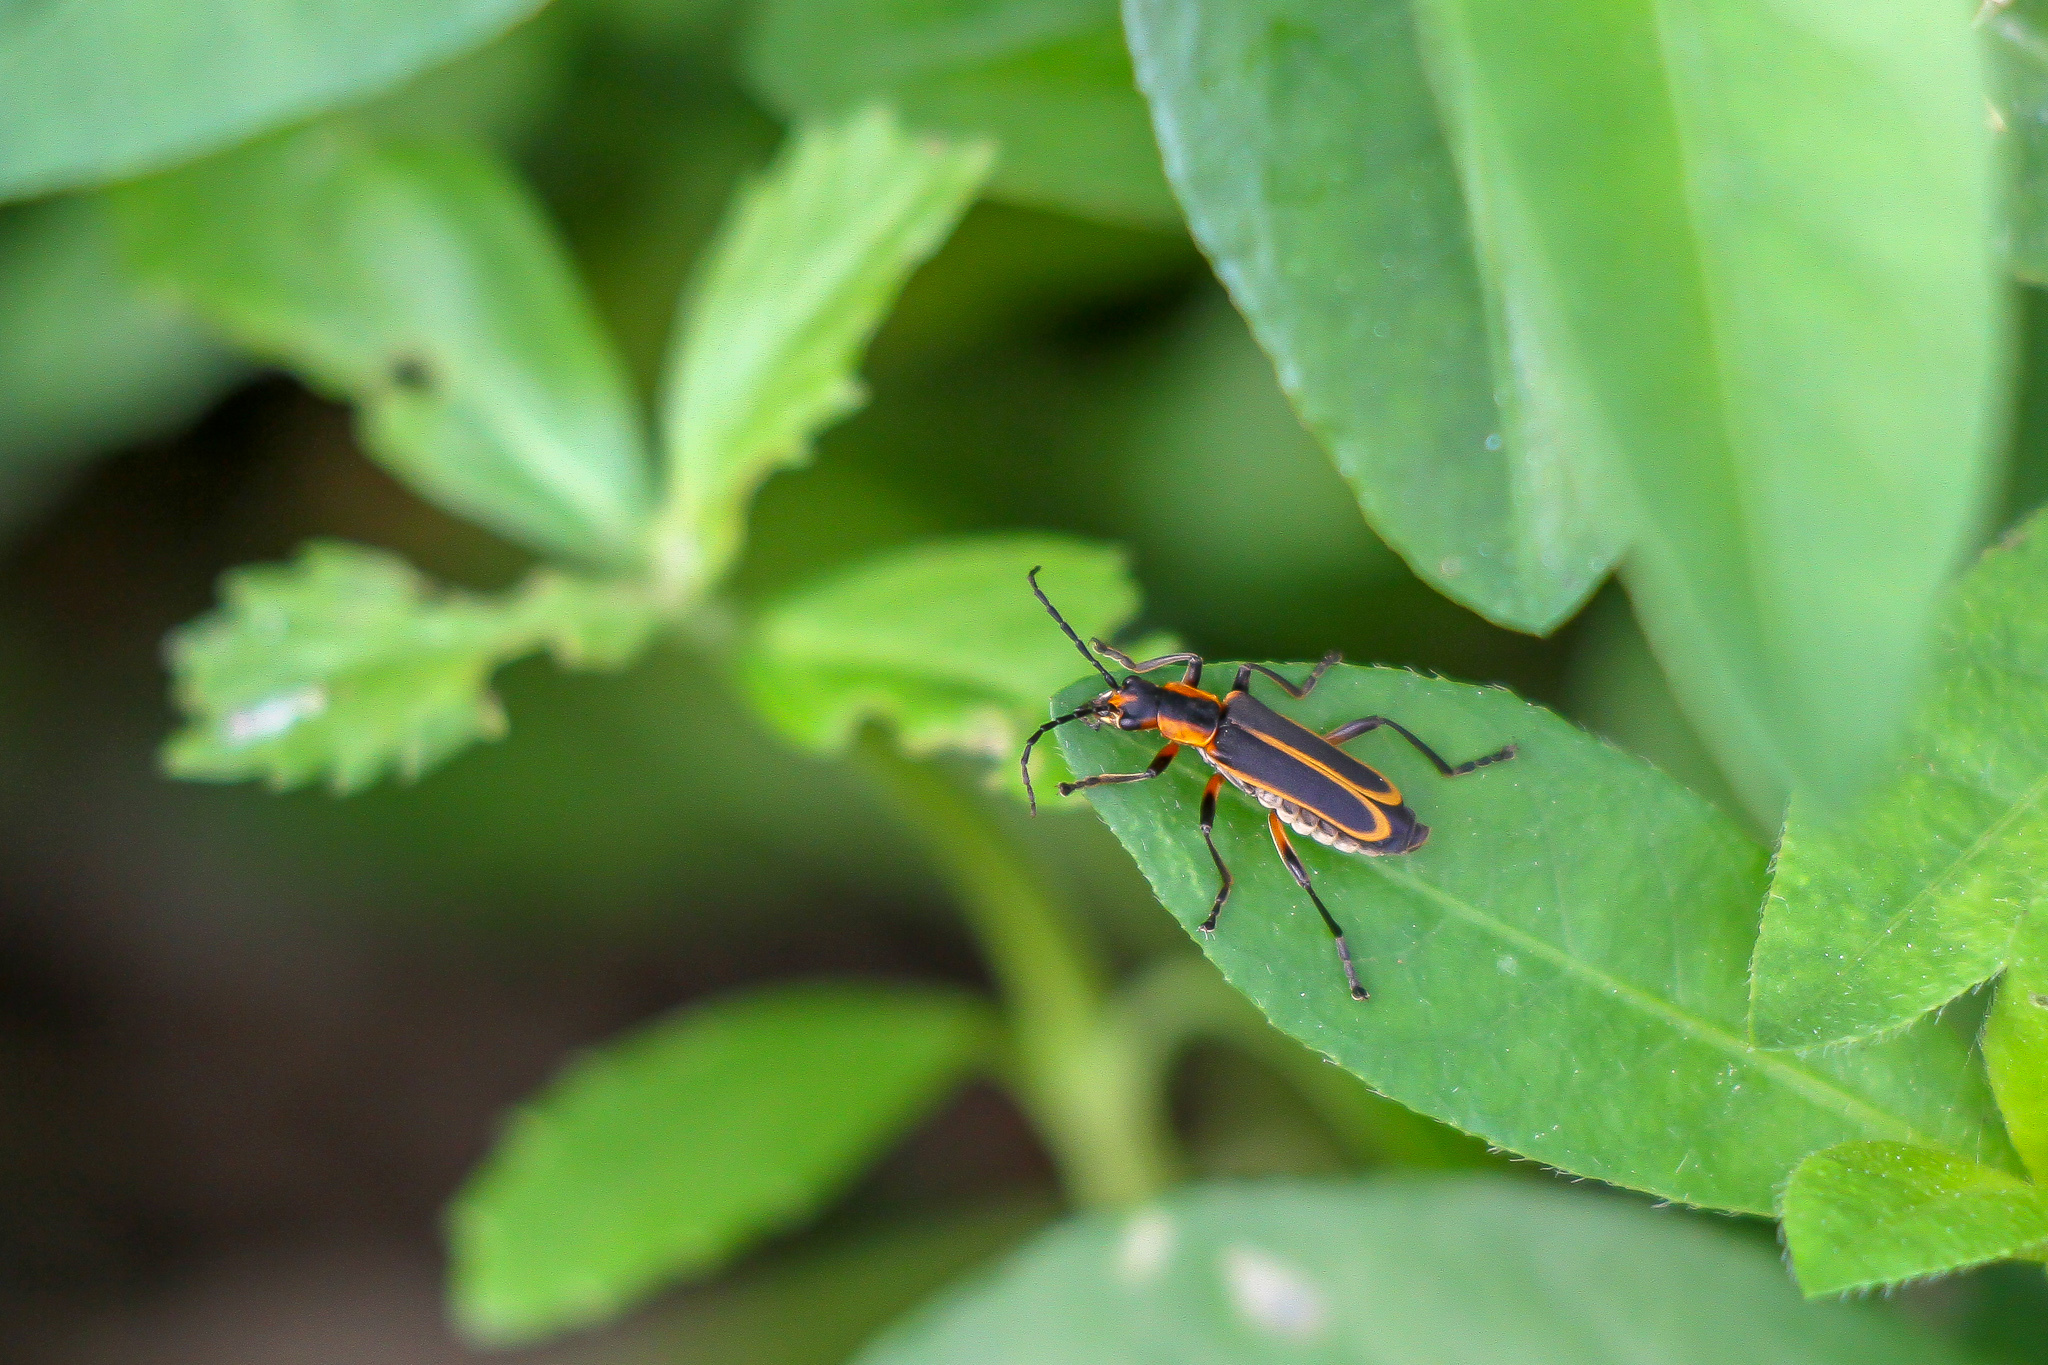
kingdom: Animalia
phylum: Arthropoda
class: Insecta
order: Coleoptera
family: Cantharidae
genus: Chauliognathus
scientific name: Chauliognathus marginatus
